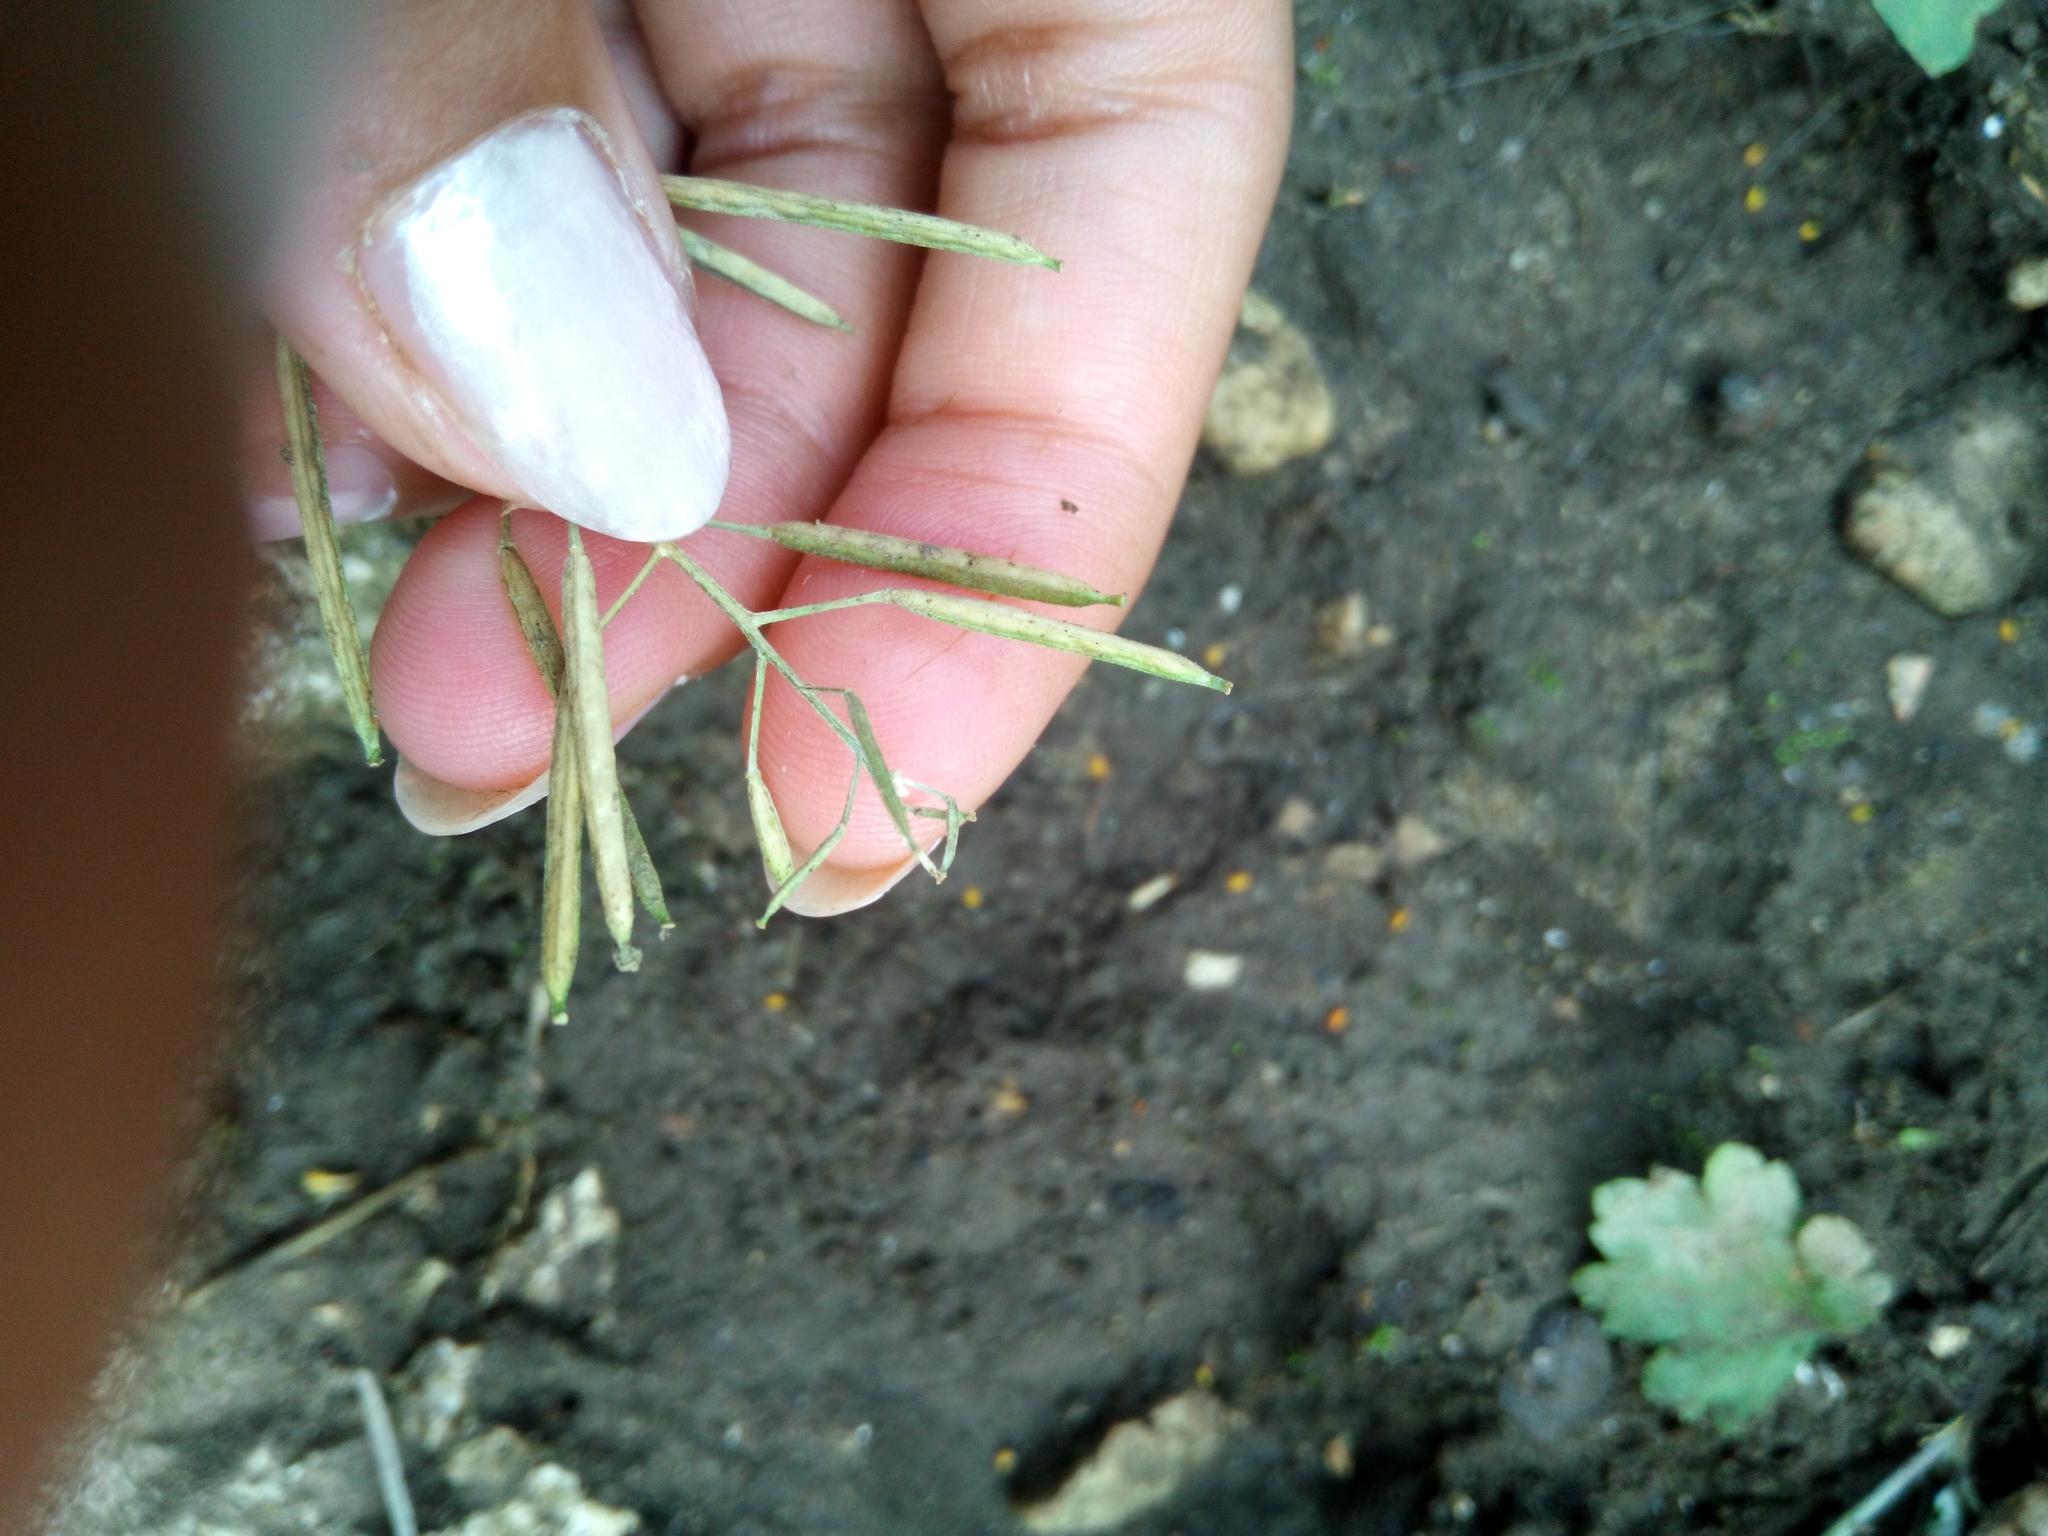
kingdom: Plantae
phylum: Tracheophyta
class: Magnoliopsida
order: Brassicales
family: Brassicaceae
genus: Erysimum
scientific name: Erysimum cheiranthoides
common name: Treacle mustard
